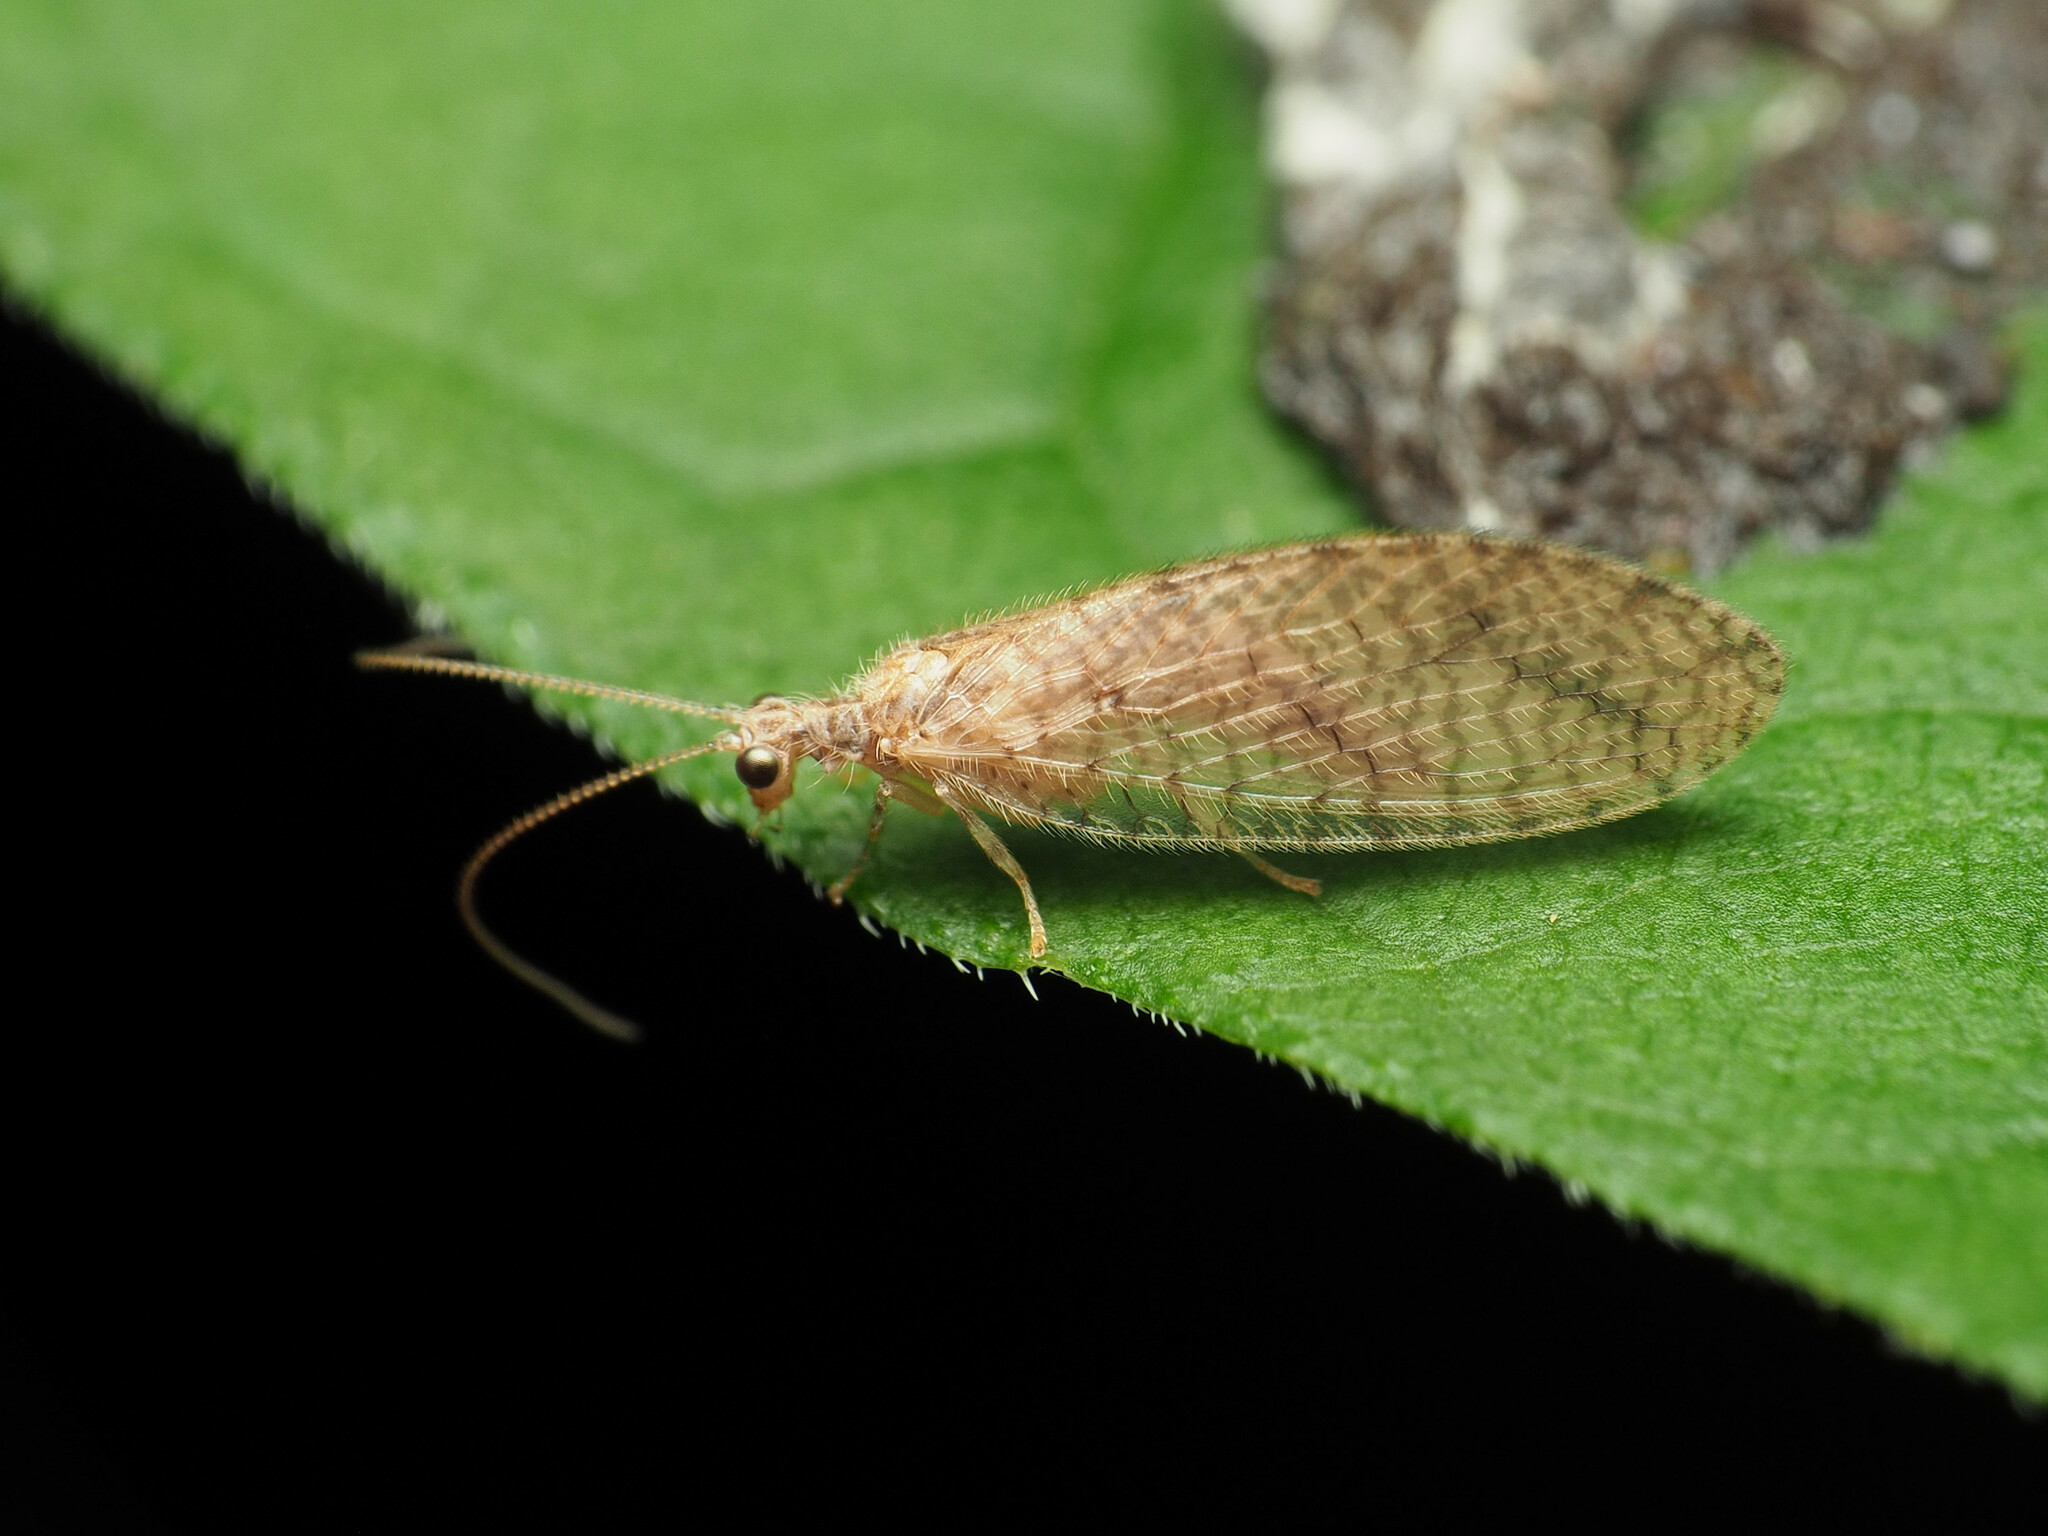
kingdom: Animalia
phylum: Arthropoda
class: Insecta
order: Neuroptera
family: Hemerobiidae
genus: Micromus
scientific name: Micromus posticus
